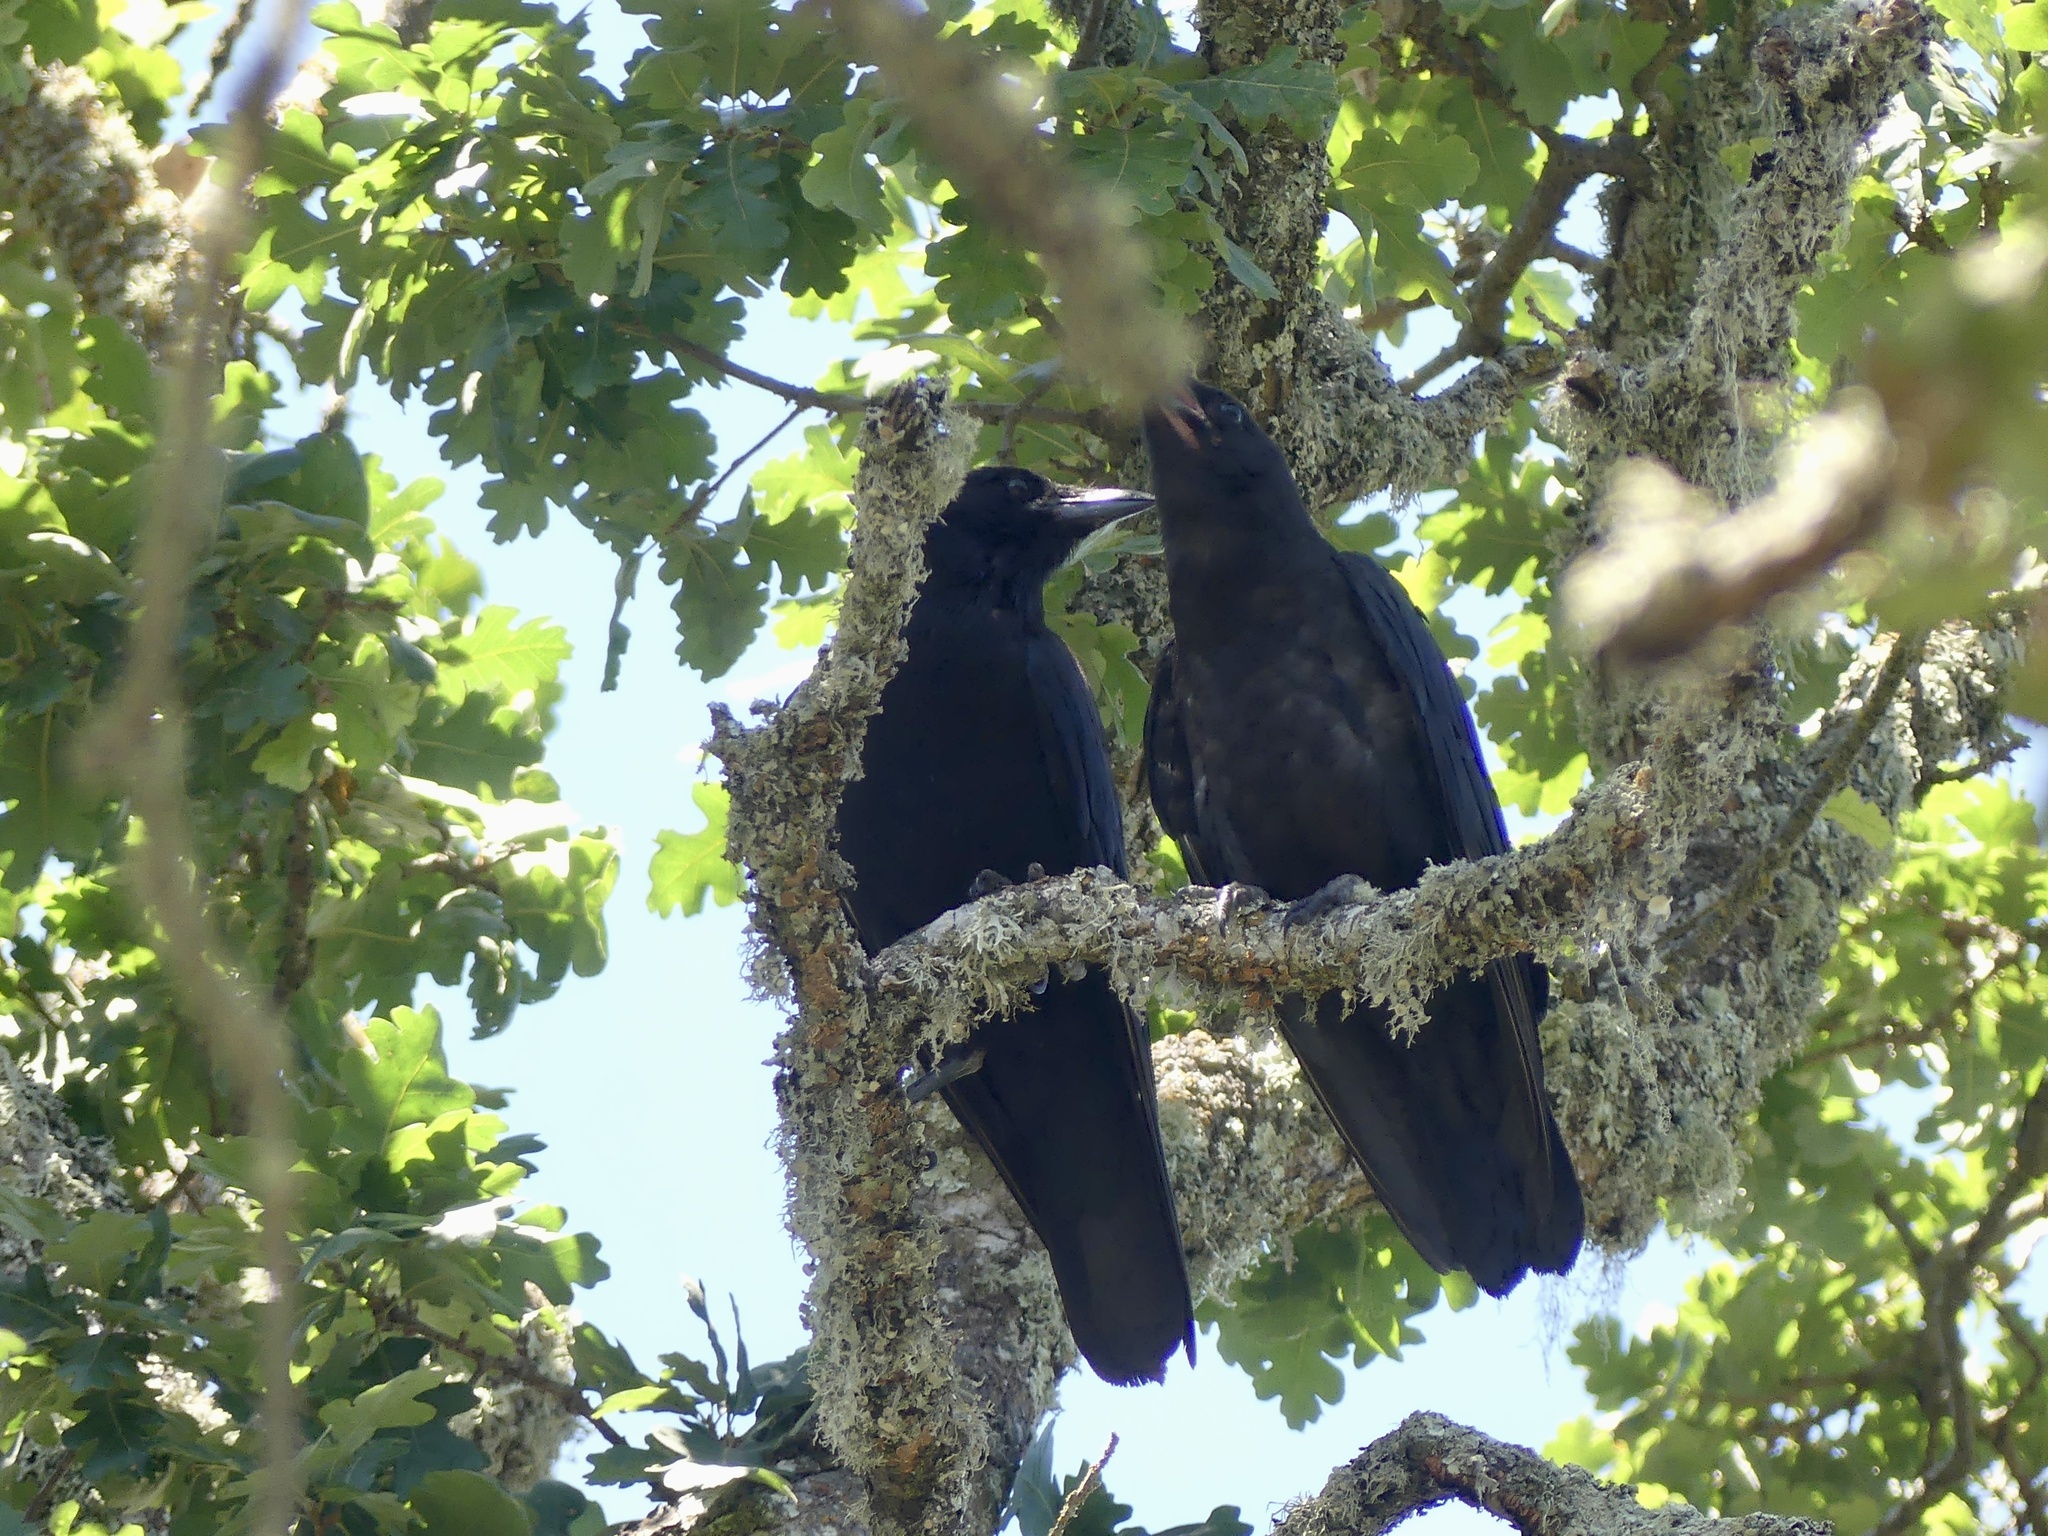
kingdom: Animalia
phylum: Chordata
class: Aves
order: Passeriformes
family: Corvidae
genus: Corvus
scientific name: Corvus brachyrhynchos
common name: American crow
